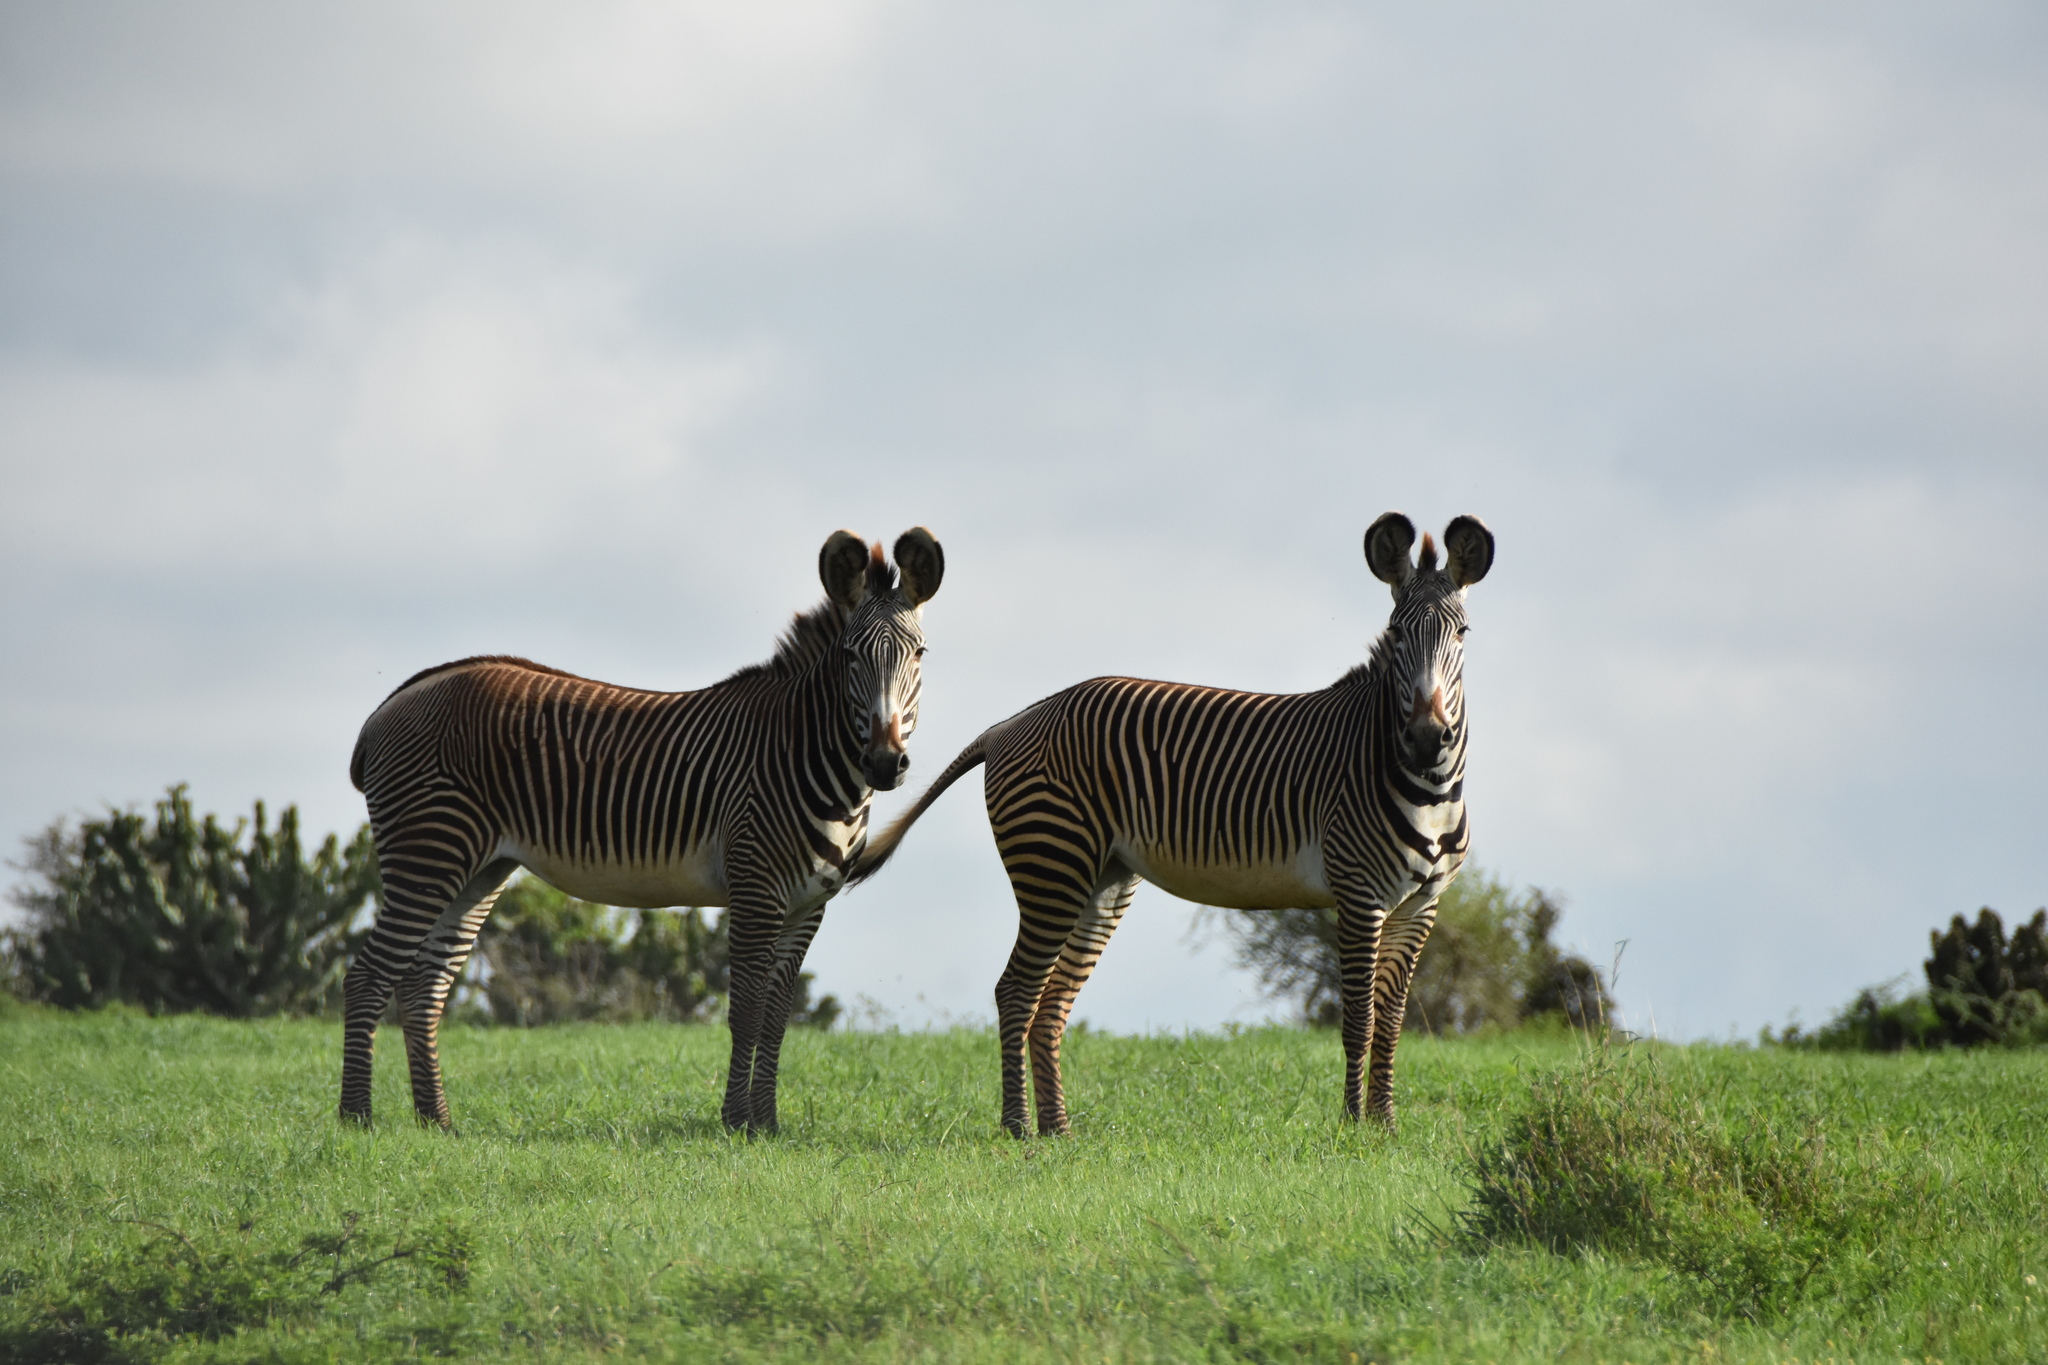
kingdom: Animalia
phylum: Chordata
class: Mammalia
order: Perissodactyla
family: Equidae
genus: Equus
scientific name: Equus grevyi
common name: Grevy's zebra
